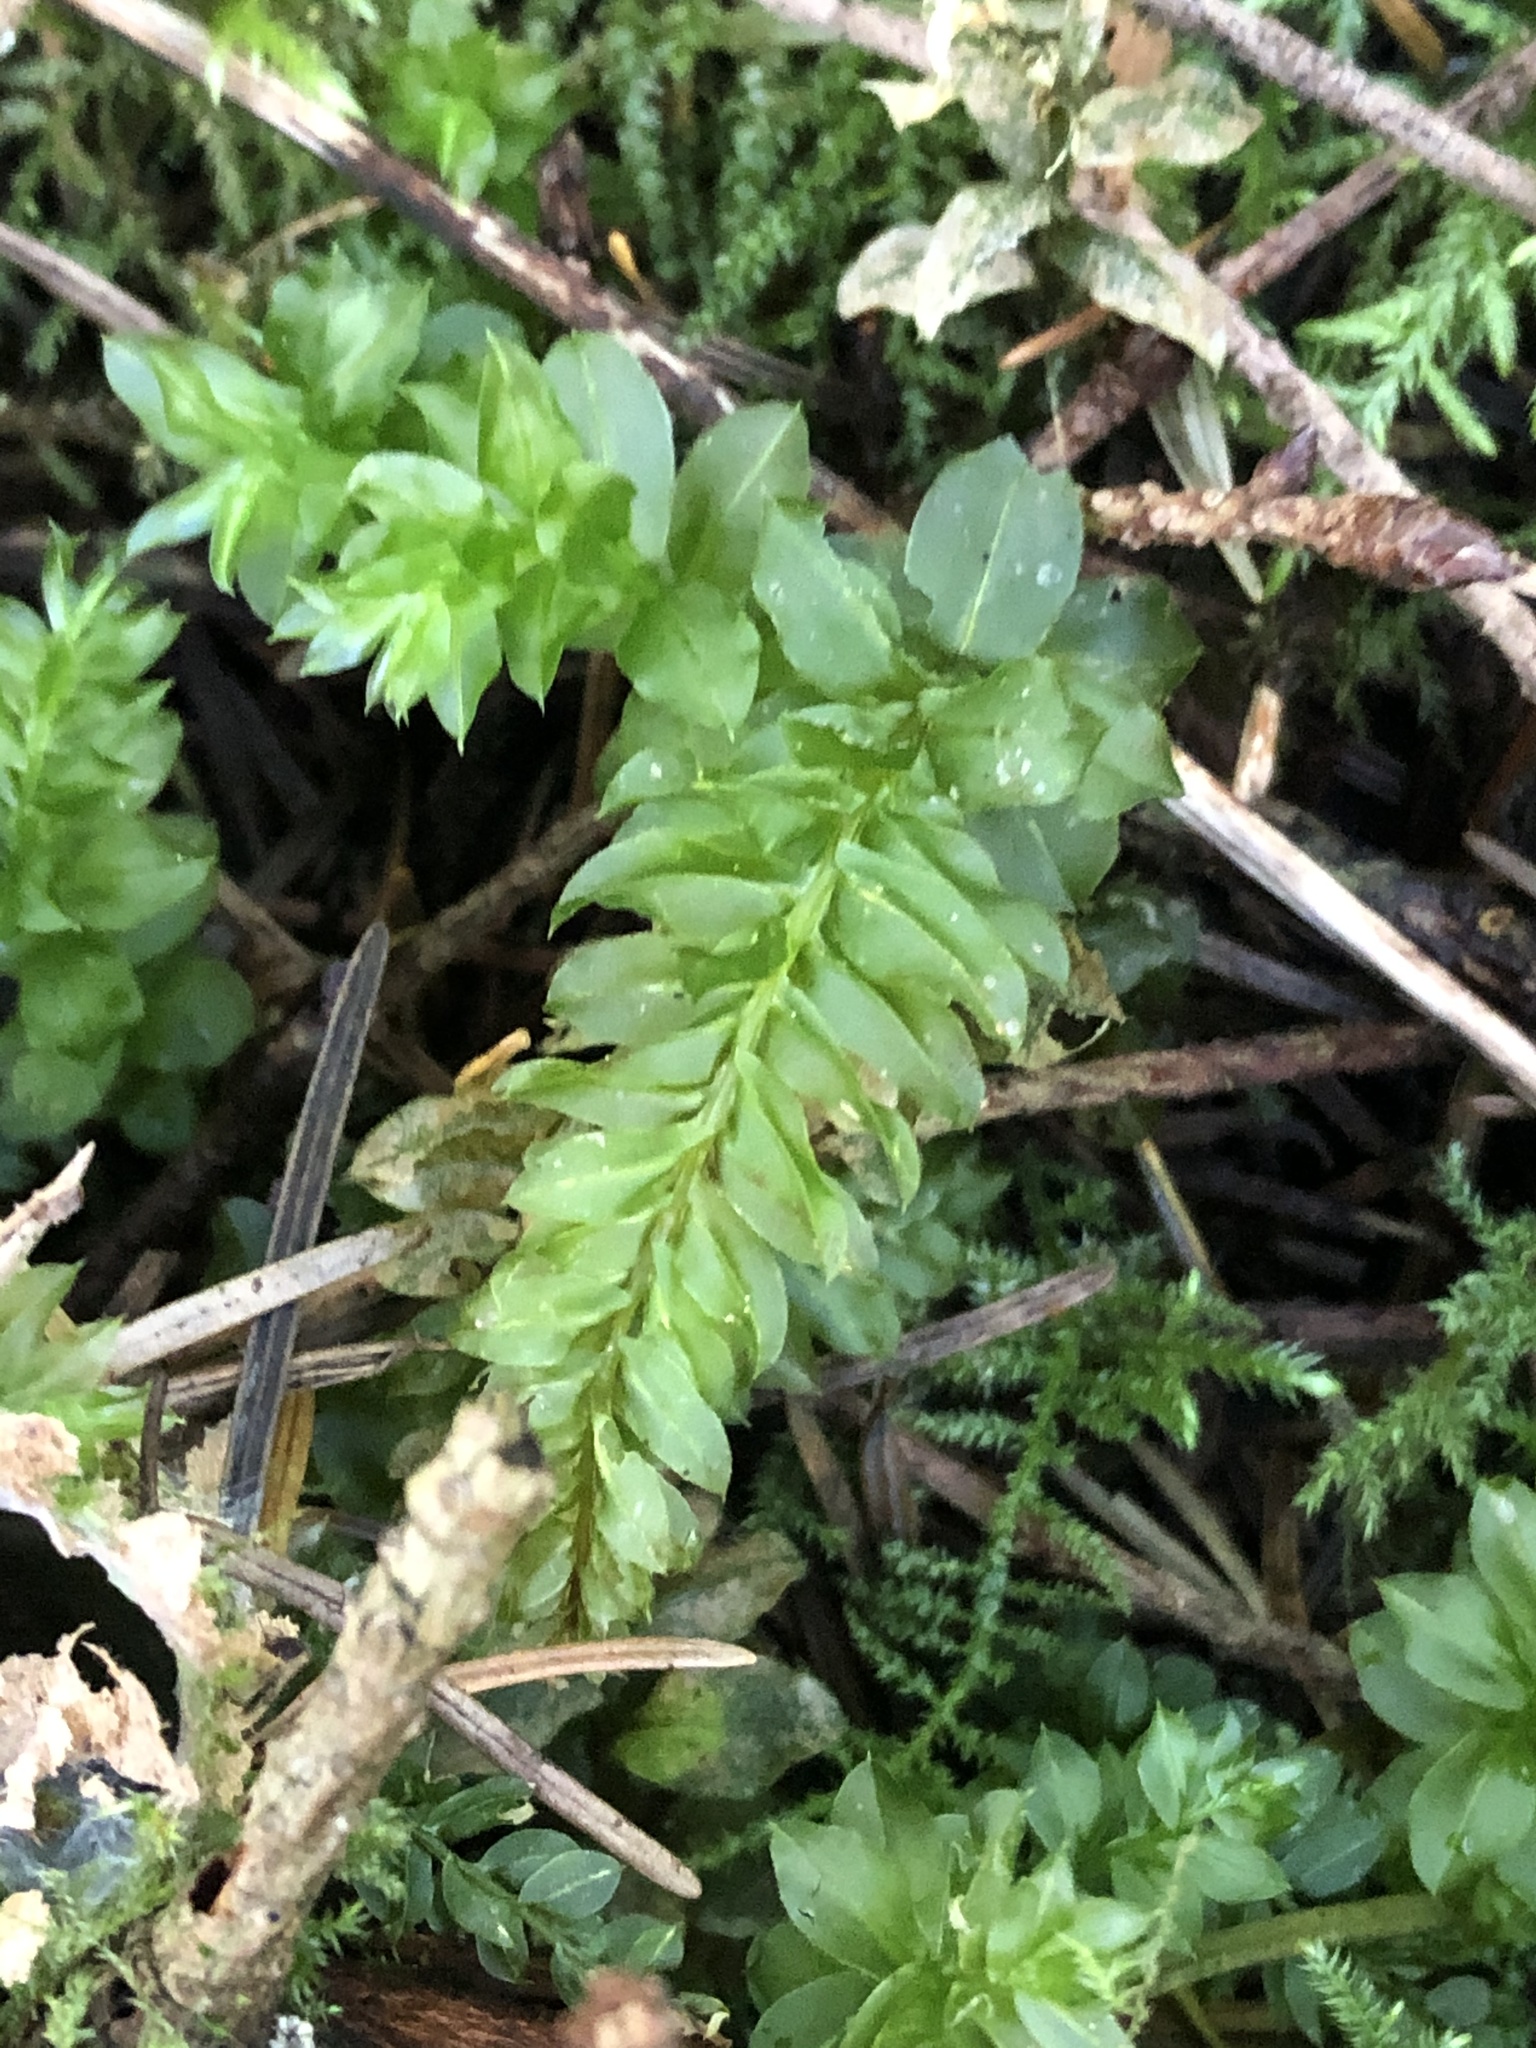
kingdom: Plantae
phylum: Bryophyta
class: Bryopsida
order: Bryales
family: Mniaceae
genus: Plagiomnium
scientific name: Plagiomnium insigne
